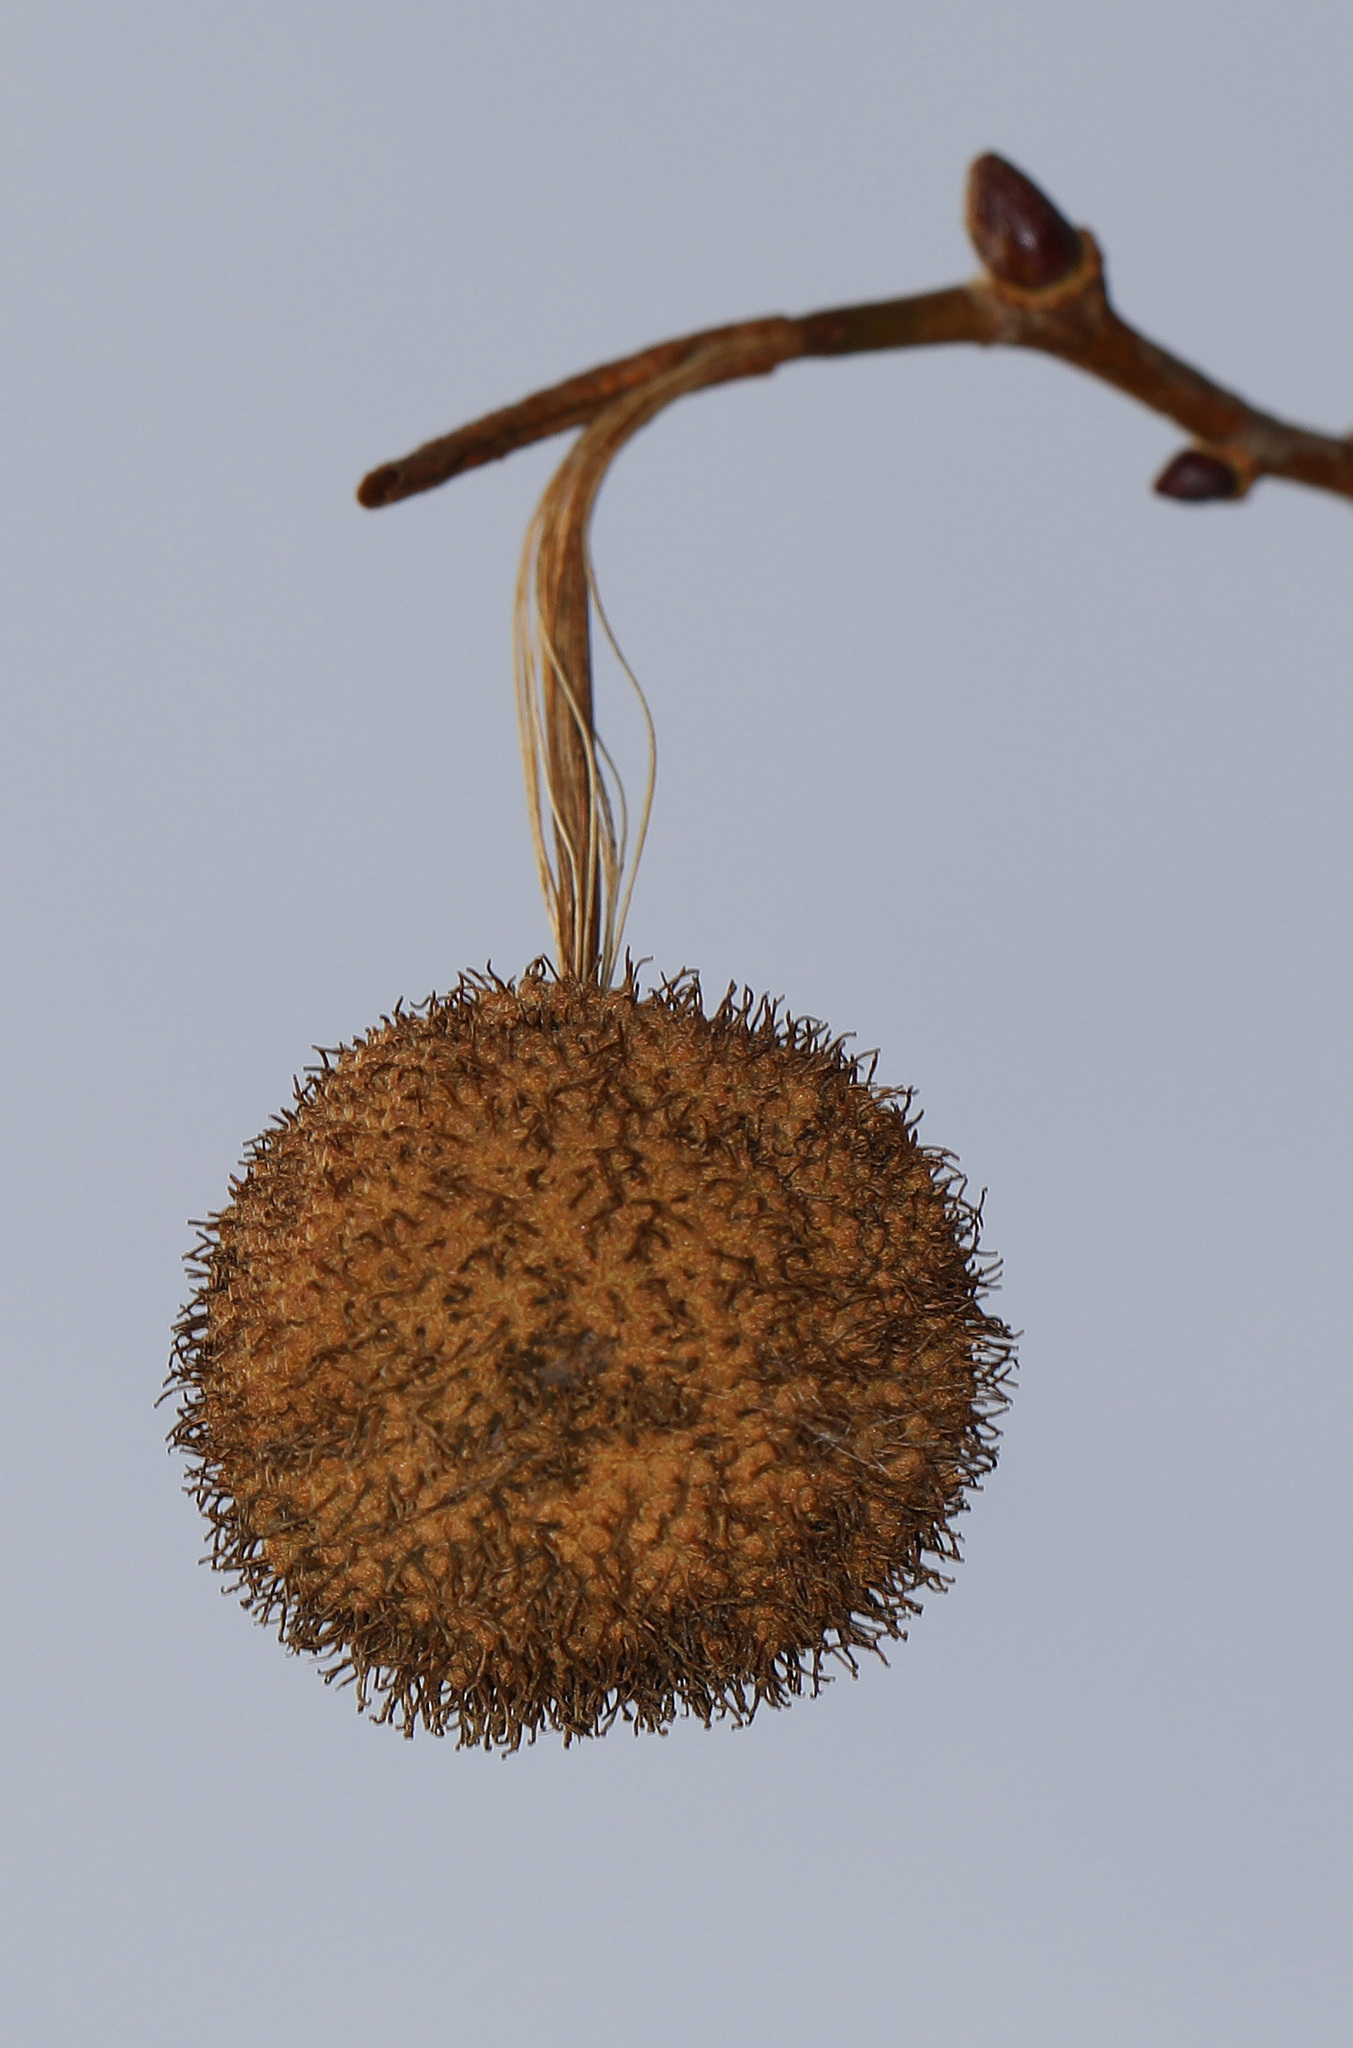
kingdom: Plantae
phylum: Tracheophyta
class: Magnoliopsida
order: Proteales
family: Platanaceae
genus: Platanus
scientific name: Platanus occidentalis
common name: American sycamore
